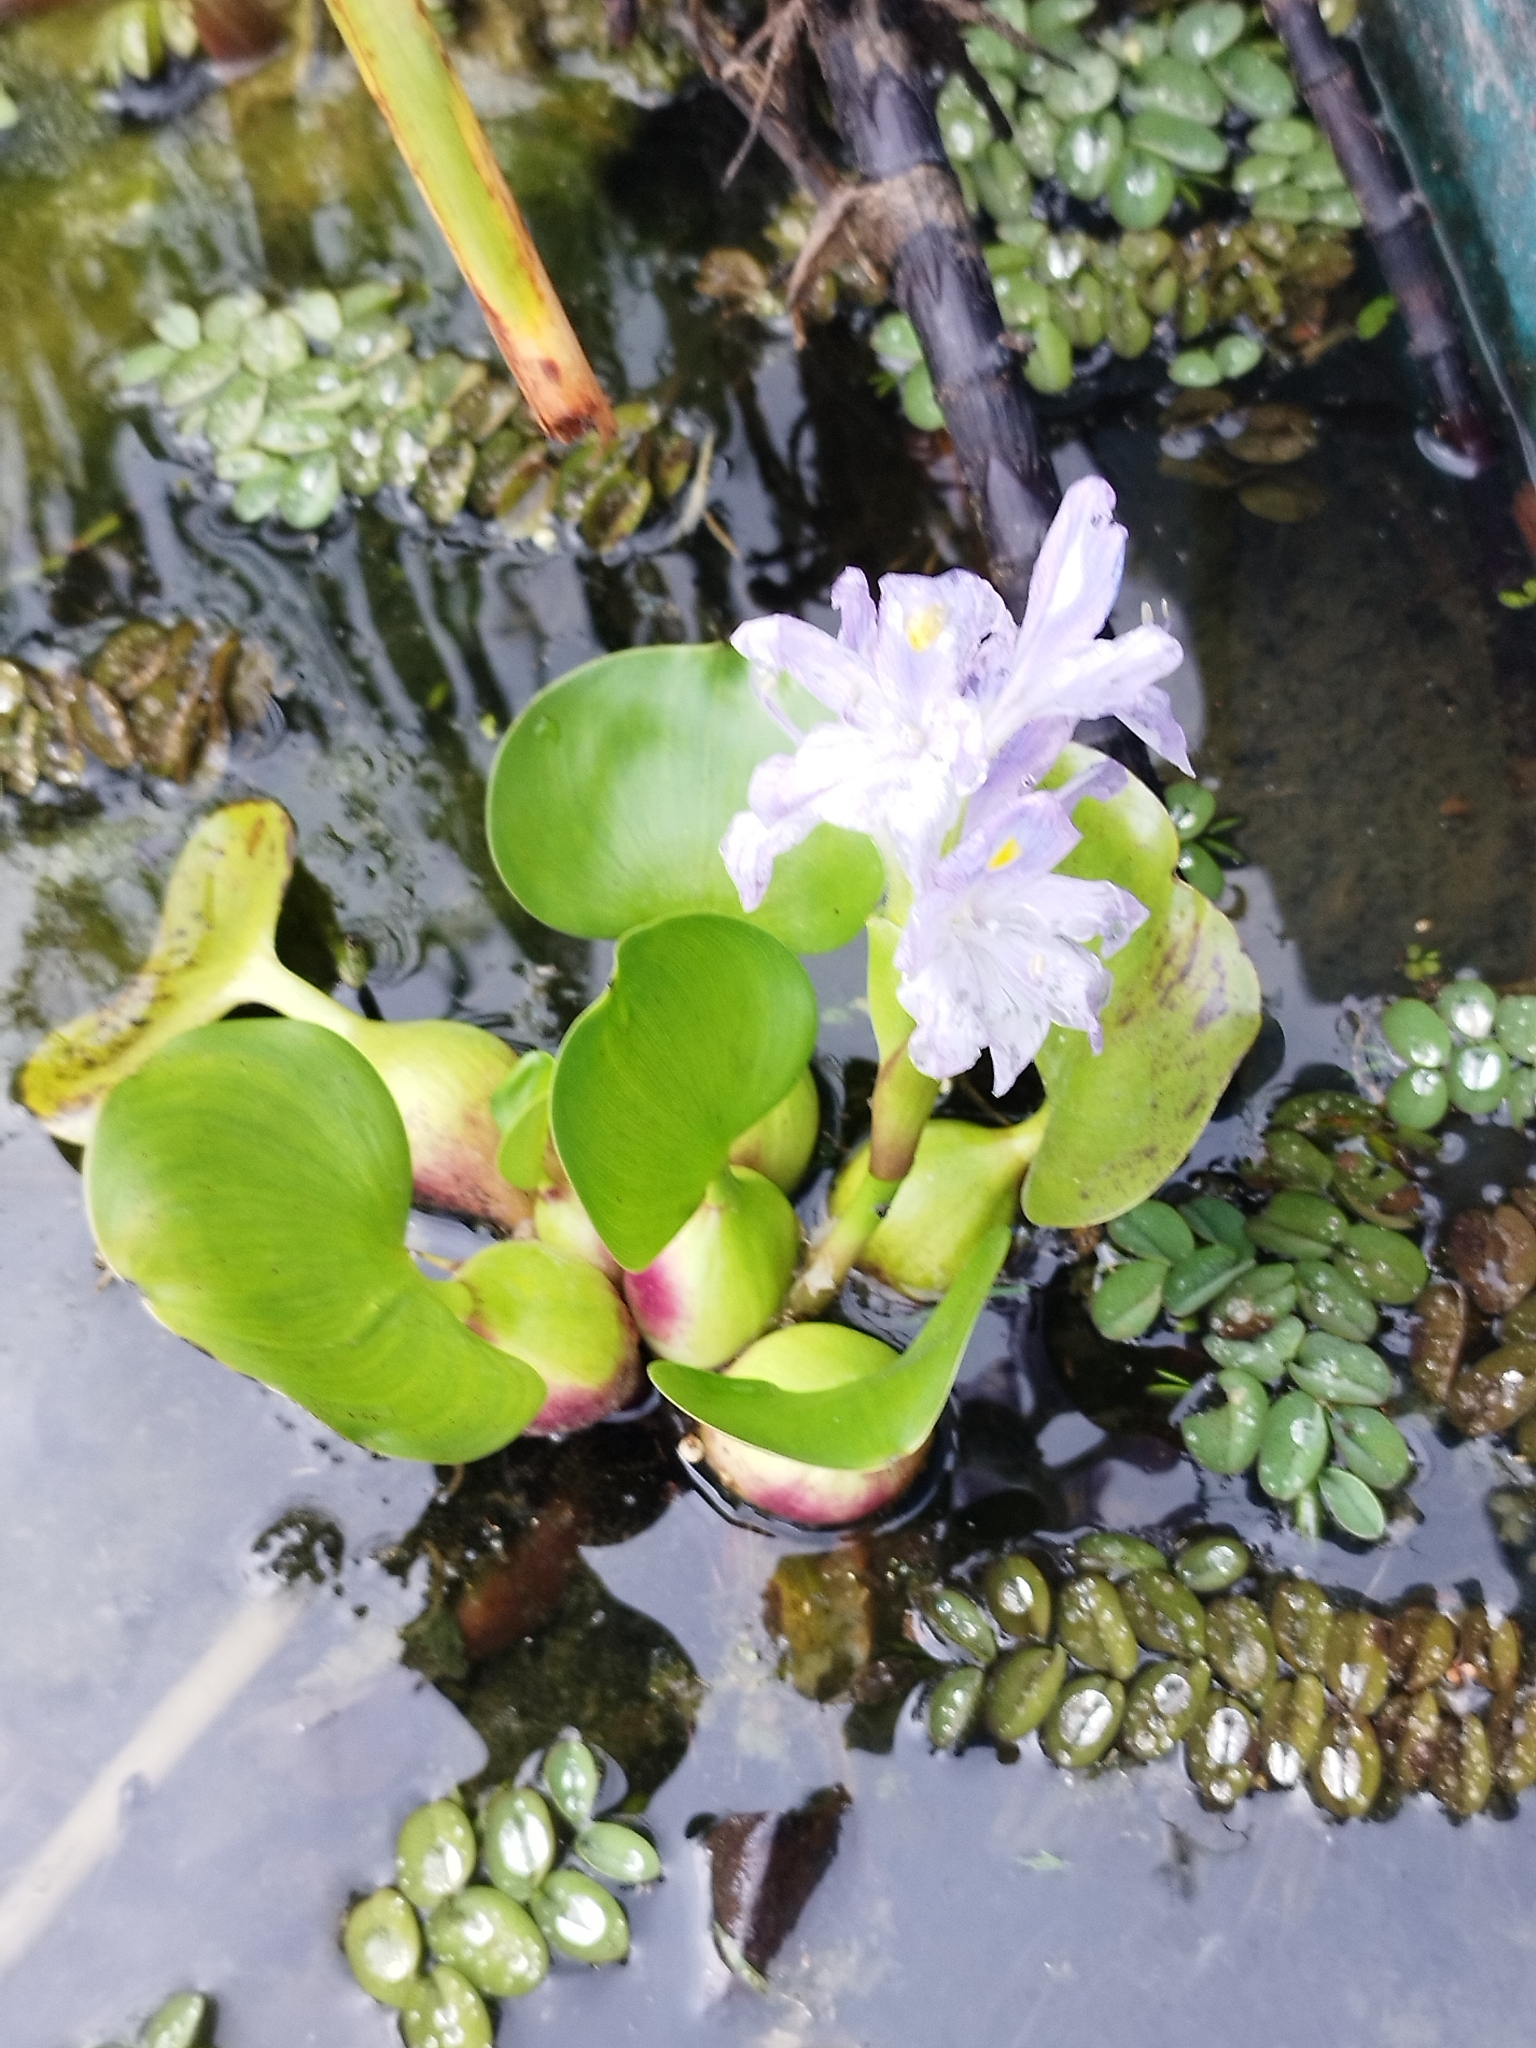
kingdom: Plantae
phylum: Tracheophyta
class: Liliopsida
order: Commelinales
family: Pontederiaceae
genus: Pontederia
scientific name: Pontederia crassipes
